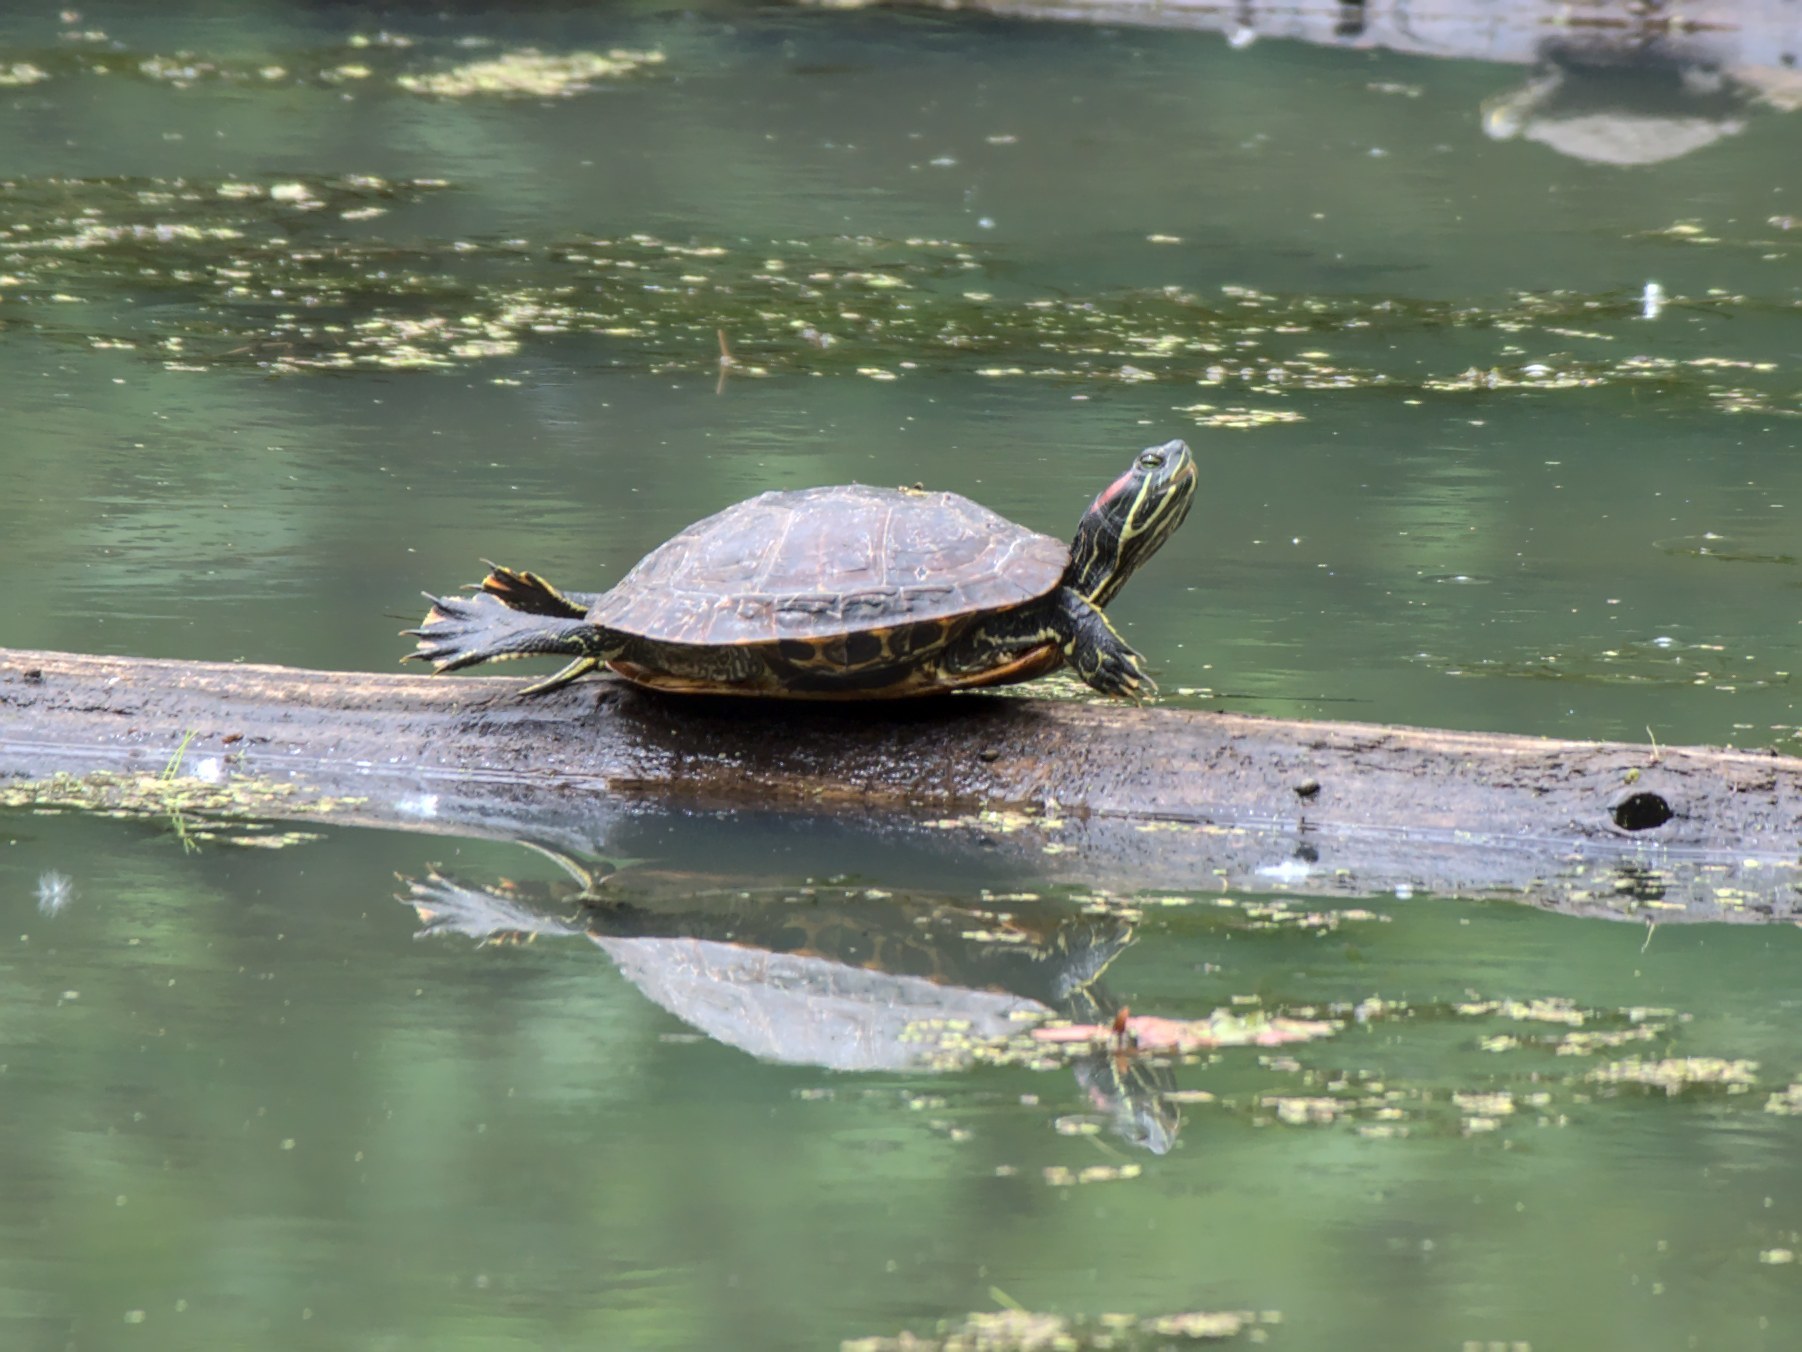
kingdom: Animalia
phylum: Chordata
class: Testudines
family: Emydidae
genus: Trachemys
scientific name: Trachemys scripta
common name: Slider
